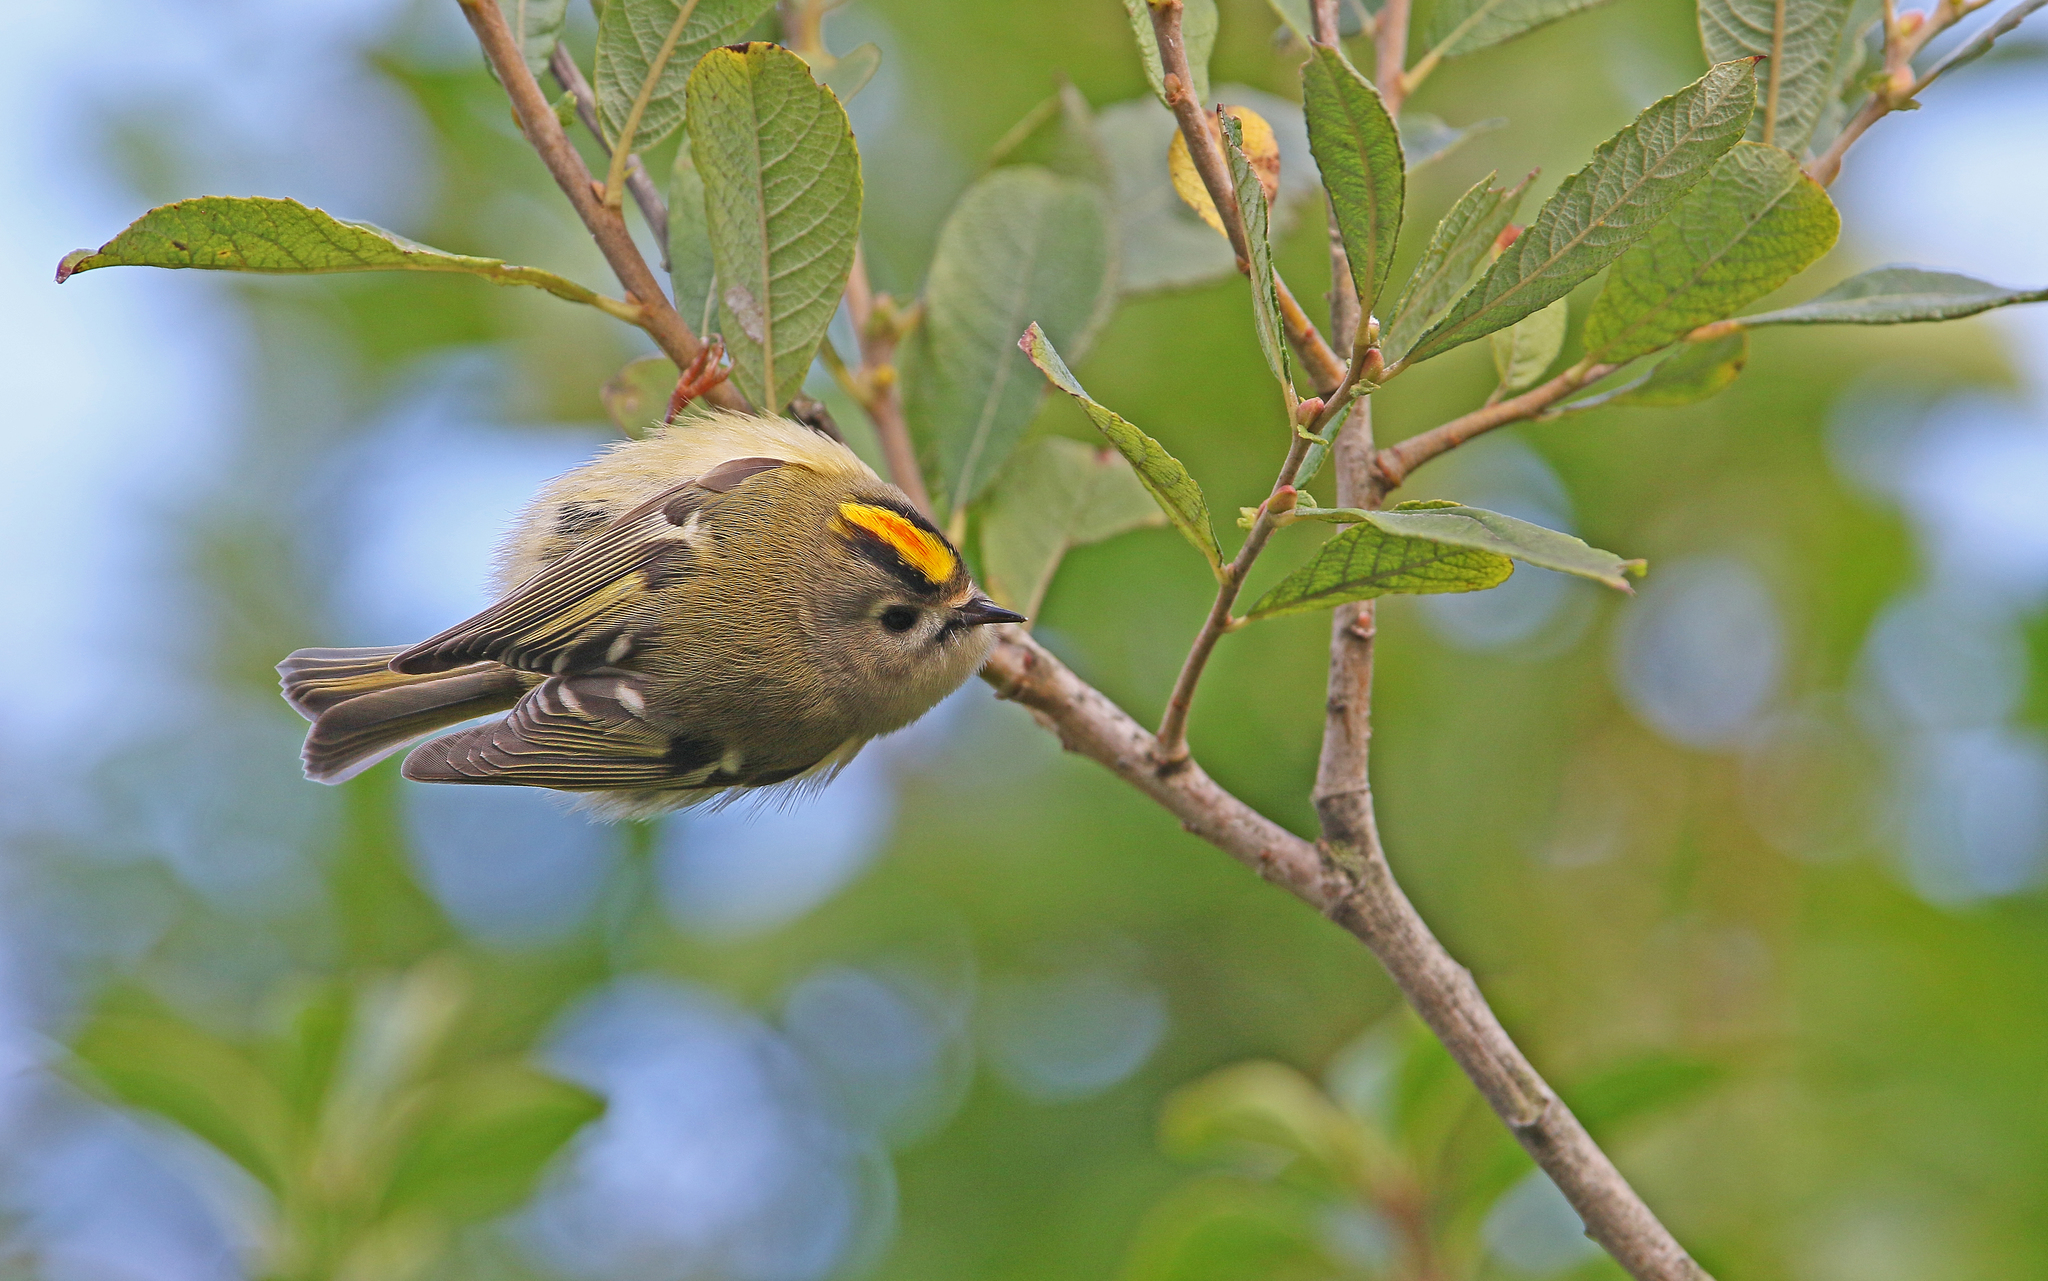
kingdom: Animalia
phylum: Chordata
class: Aves
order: Passeriformes
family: Regulidae
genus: Regulus
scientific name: Regulus regulus
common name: Goldcrest
